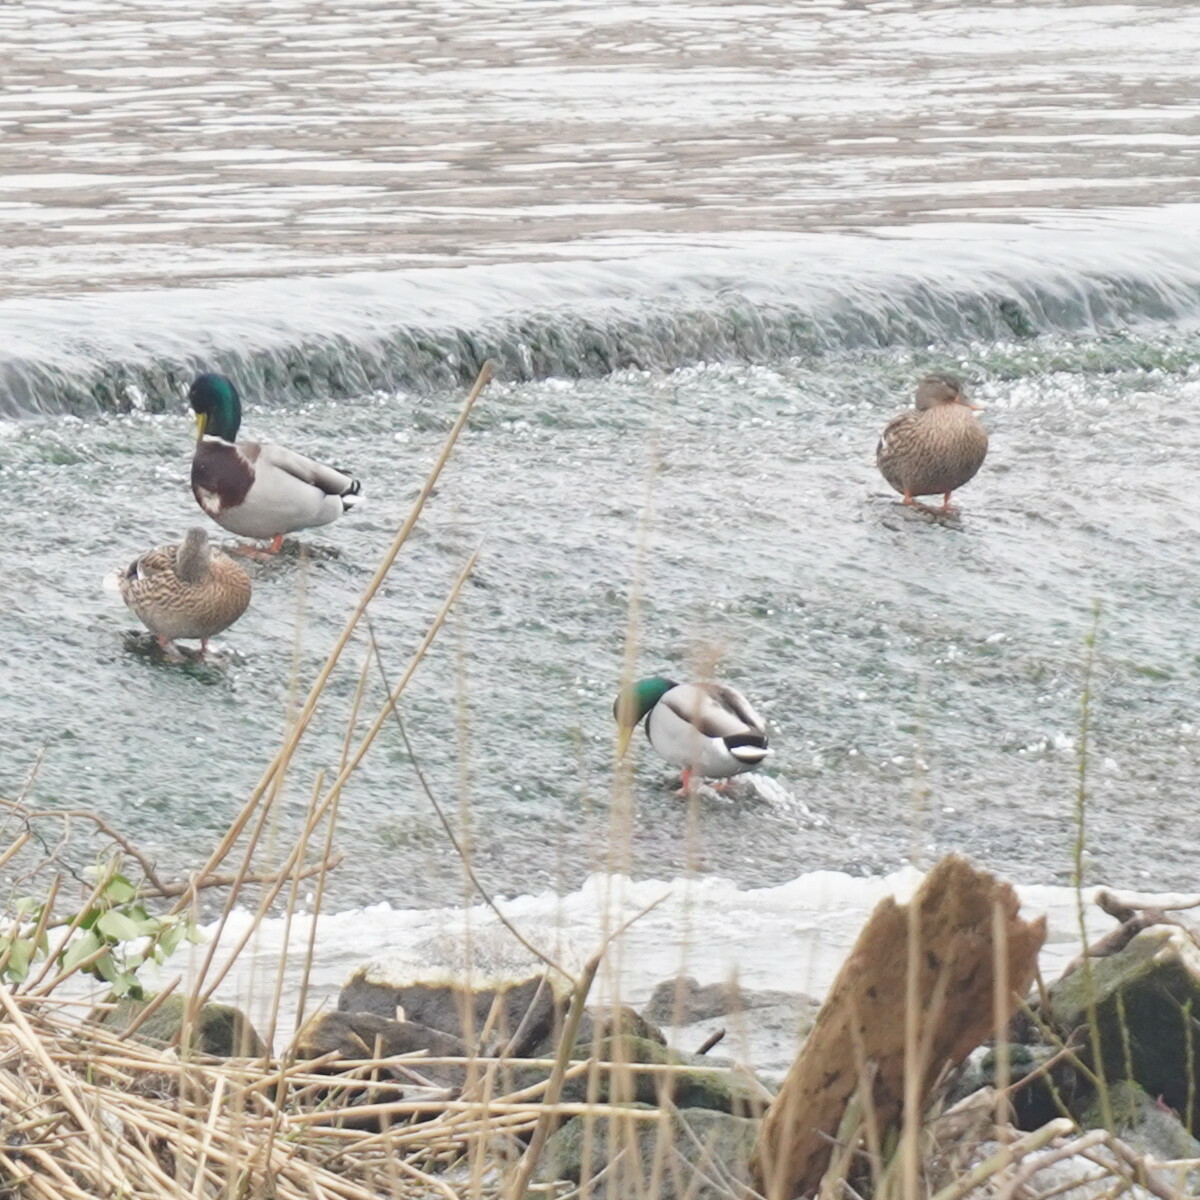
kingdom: Animalia
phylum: Chordata
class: Aves
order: Anseriformes
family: Anatidae
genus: Anas
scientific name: Anas platyrhynchos
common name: Mallard
